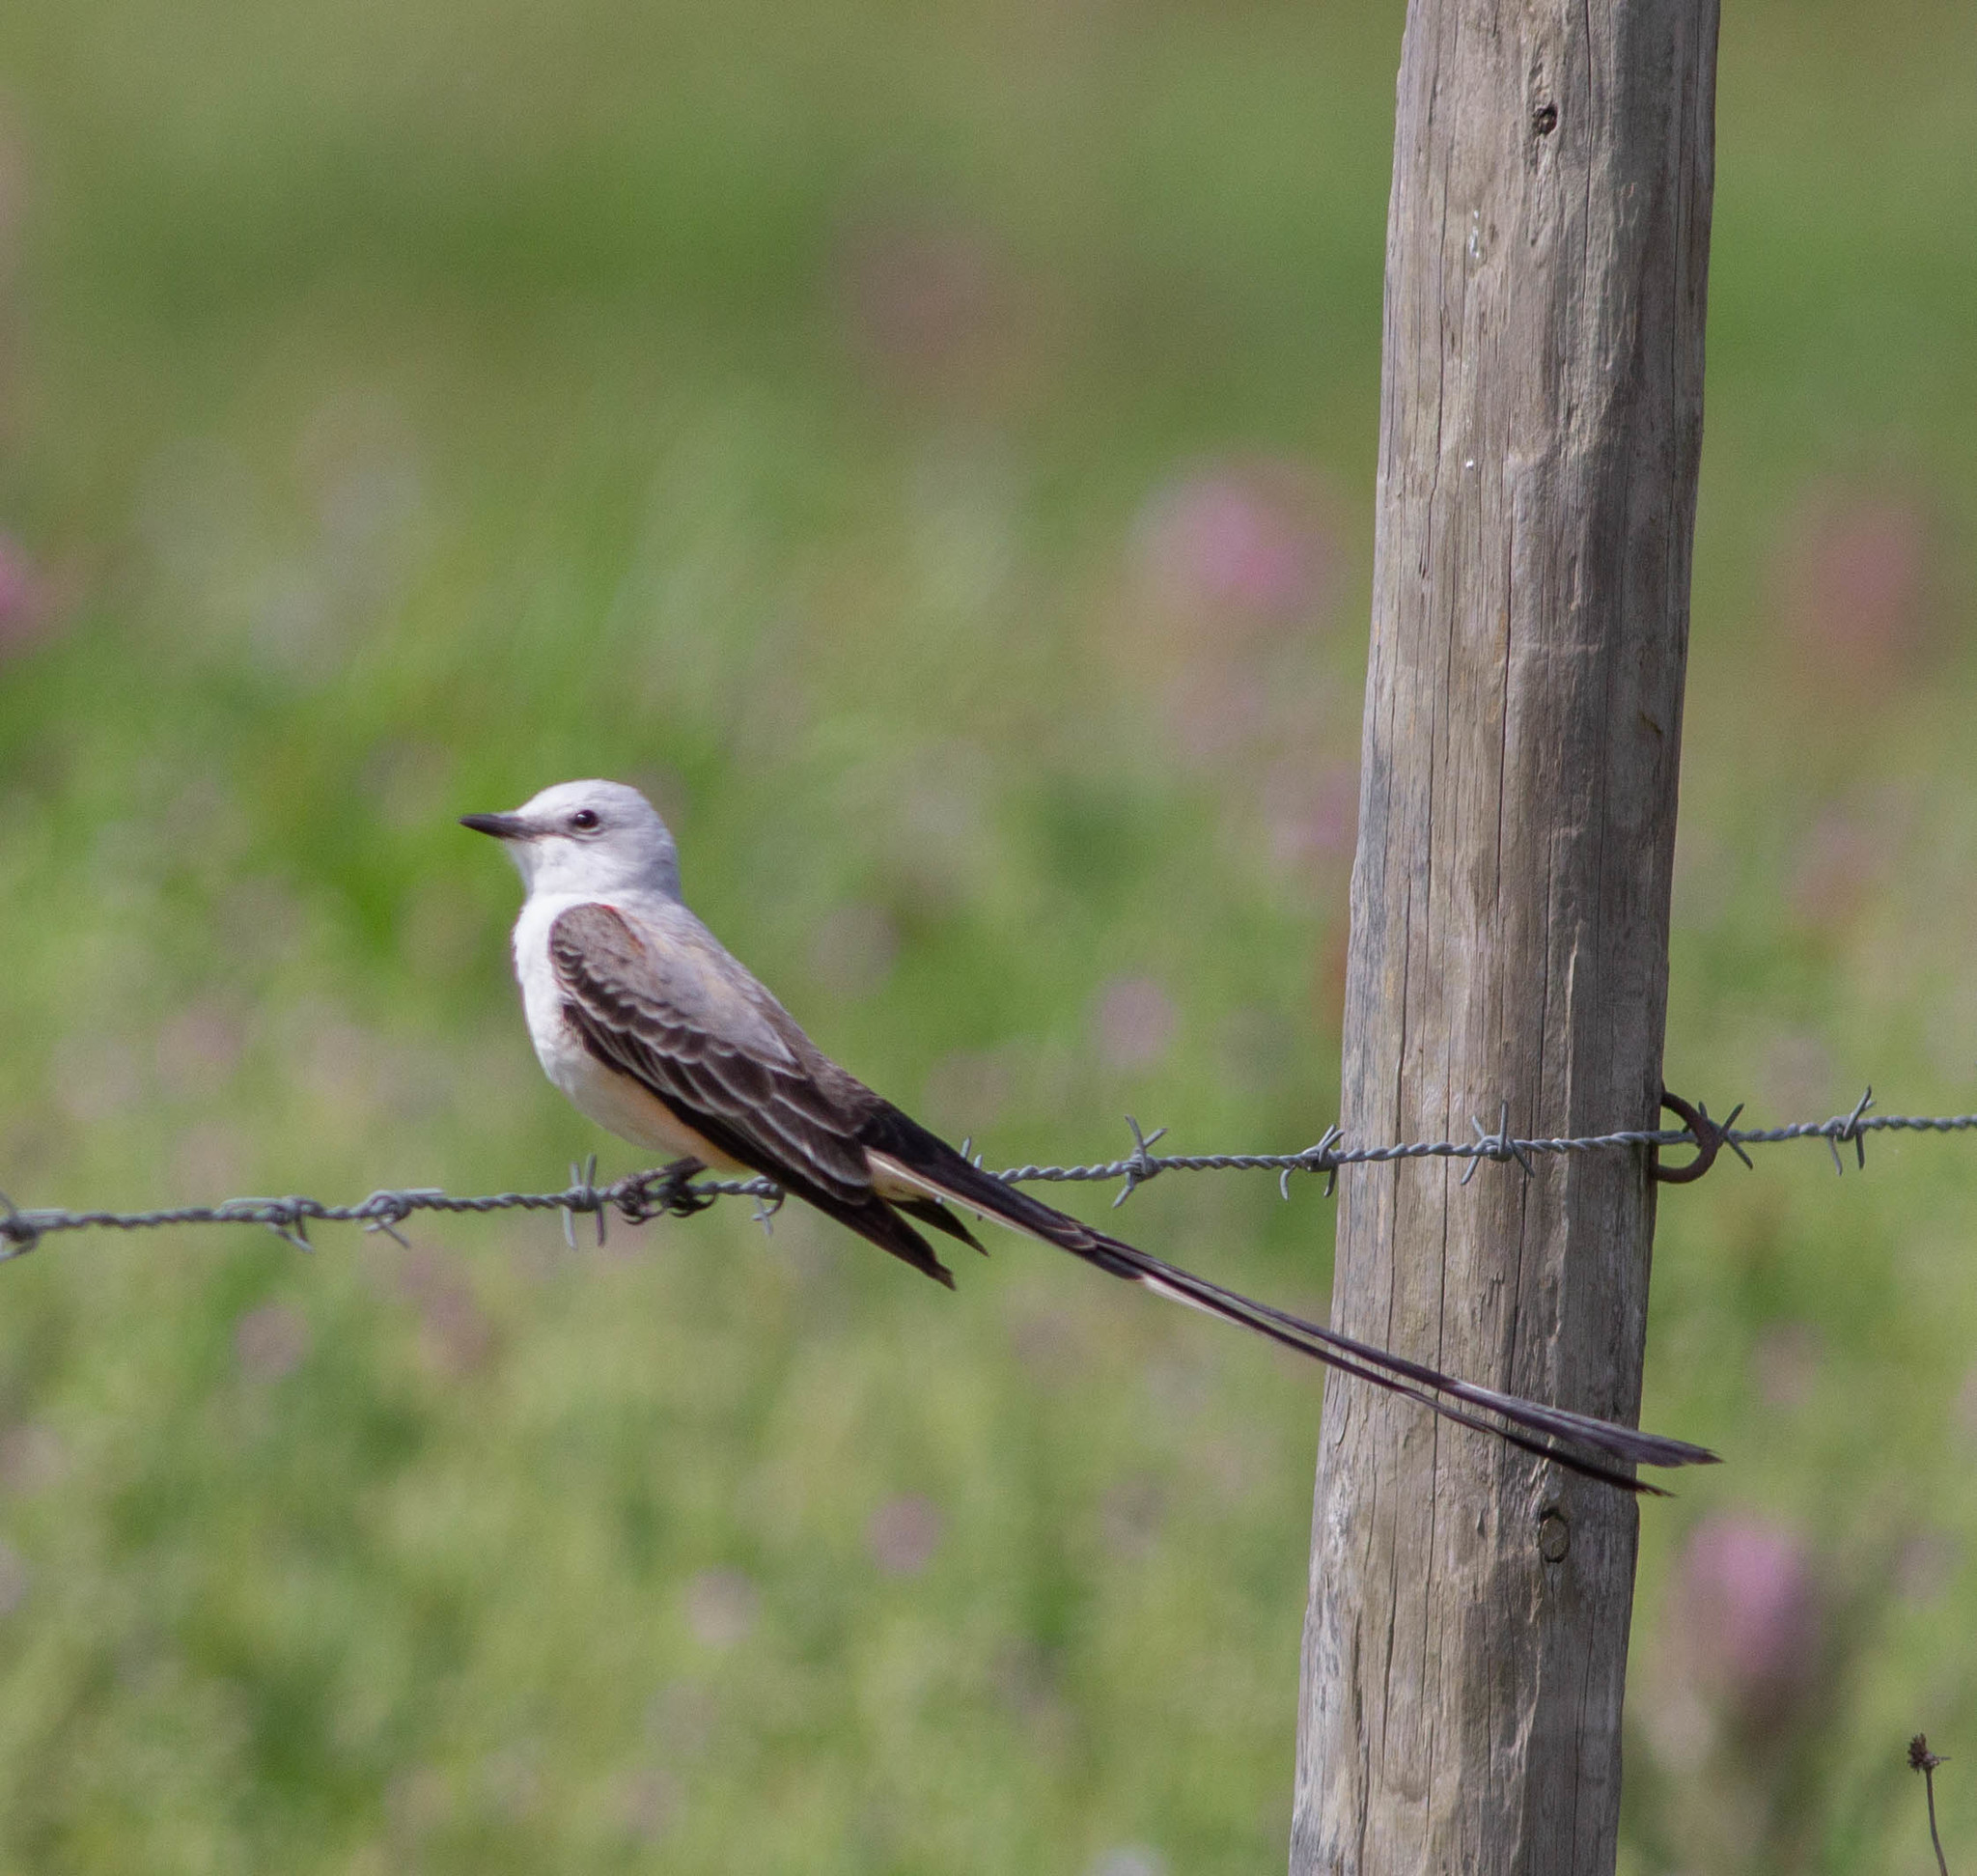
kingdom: Animalia
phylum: Chordata
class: Aves
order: Passeriformes
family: Tyrannidae
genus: Tyrannus
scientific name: Tyrannus forficatus
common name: Scissor-tailed flycatcher
